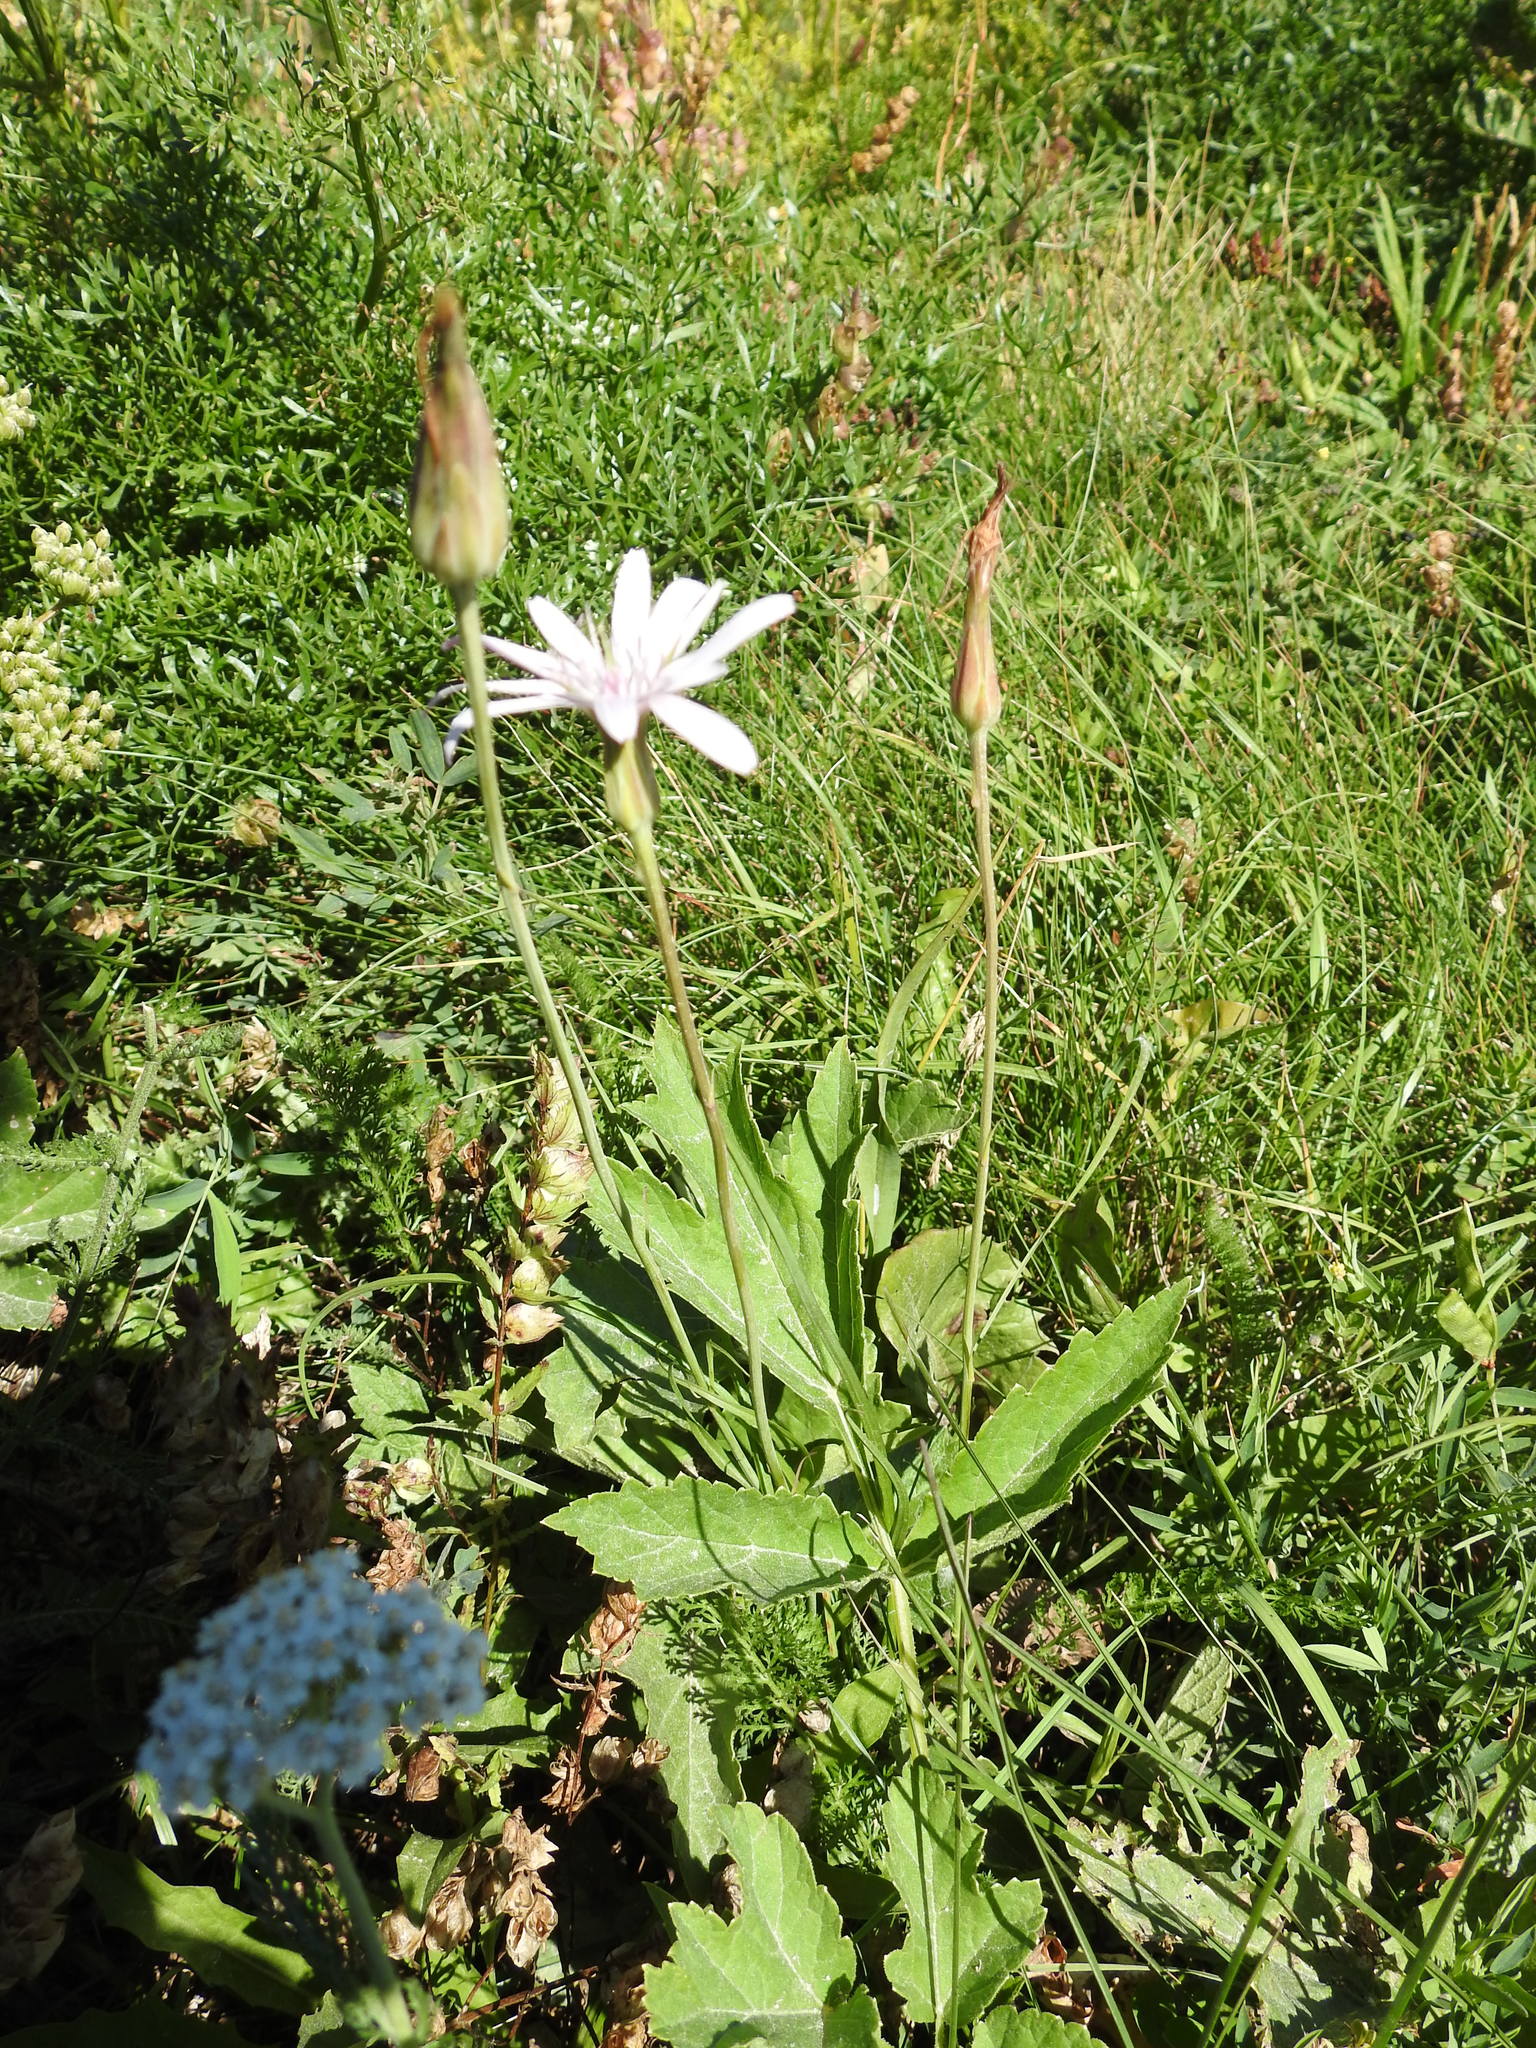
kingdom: Plantae
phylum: Tracheophyta
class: Magnoliopsida
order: Asterales
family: Asteraceae
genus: Scorzonera
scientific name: Scorzonera purpurea
